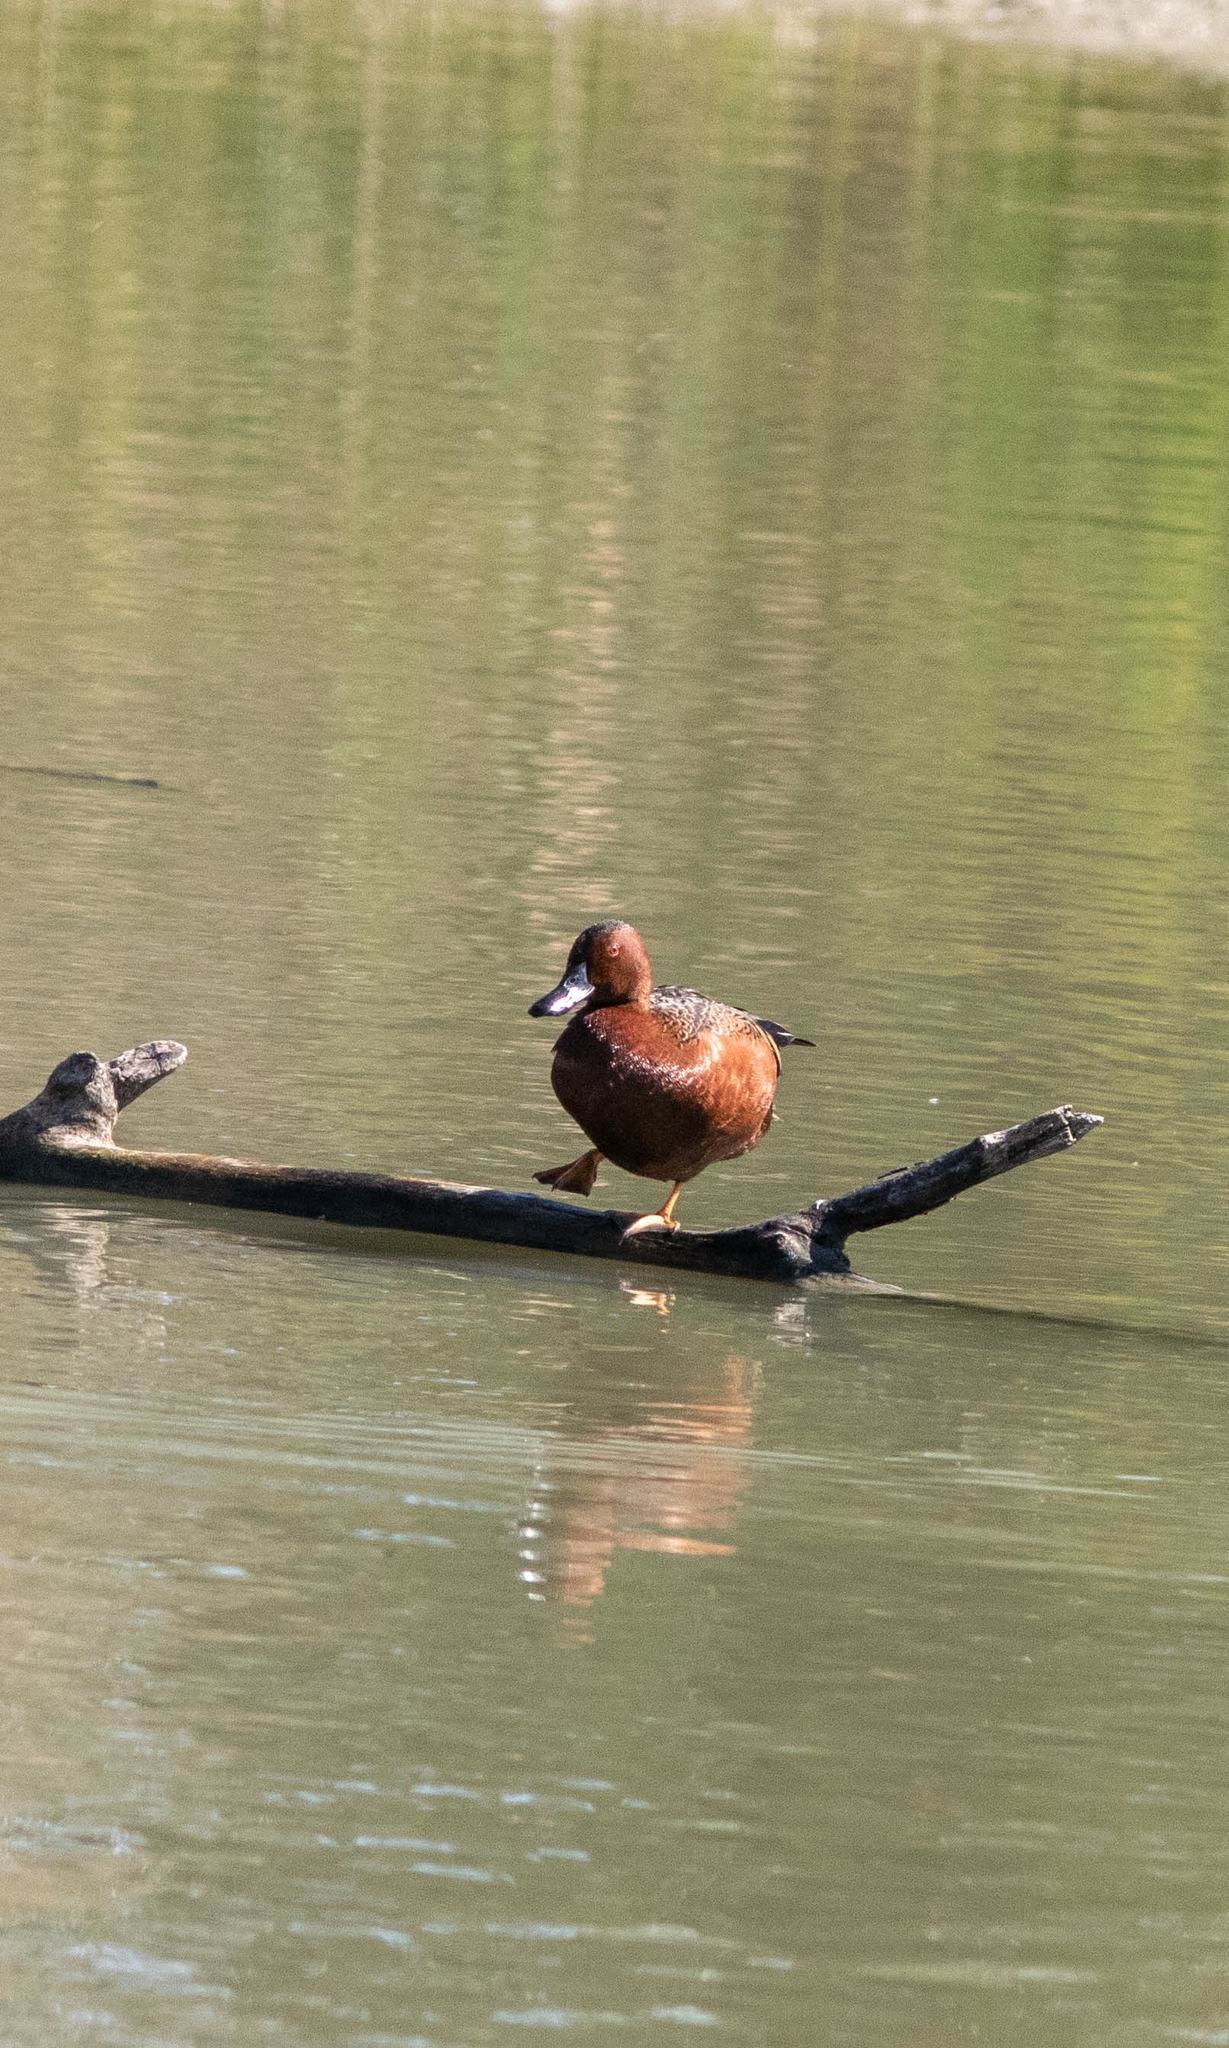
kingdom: Animalia
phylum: Chordata
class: Aves
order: Anseriformes
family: Anatidae
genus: Spatula
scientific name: Spatula cyanoptera
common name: Cinnamon teal
